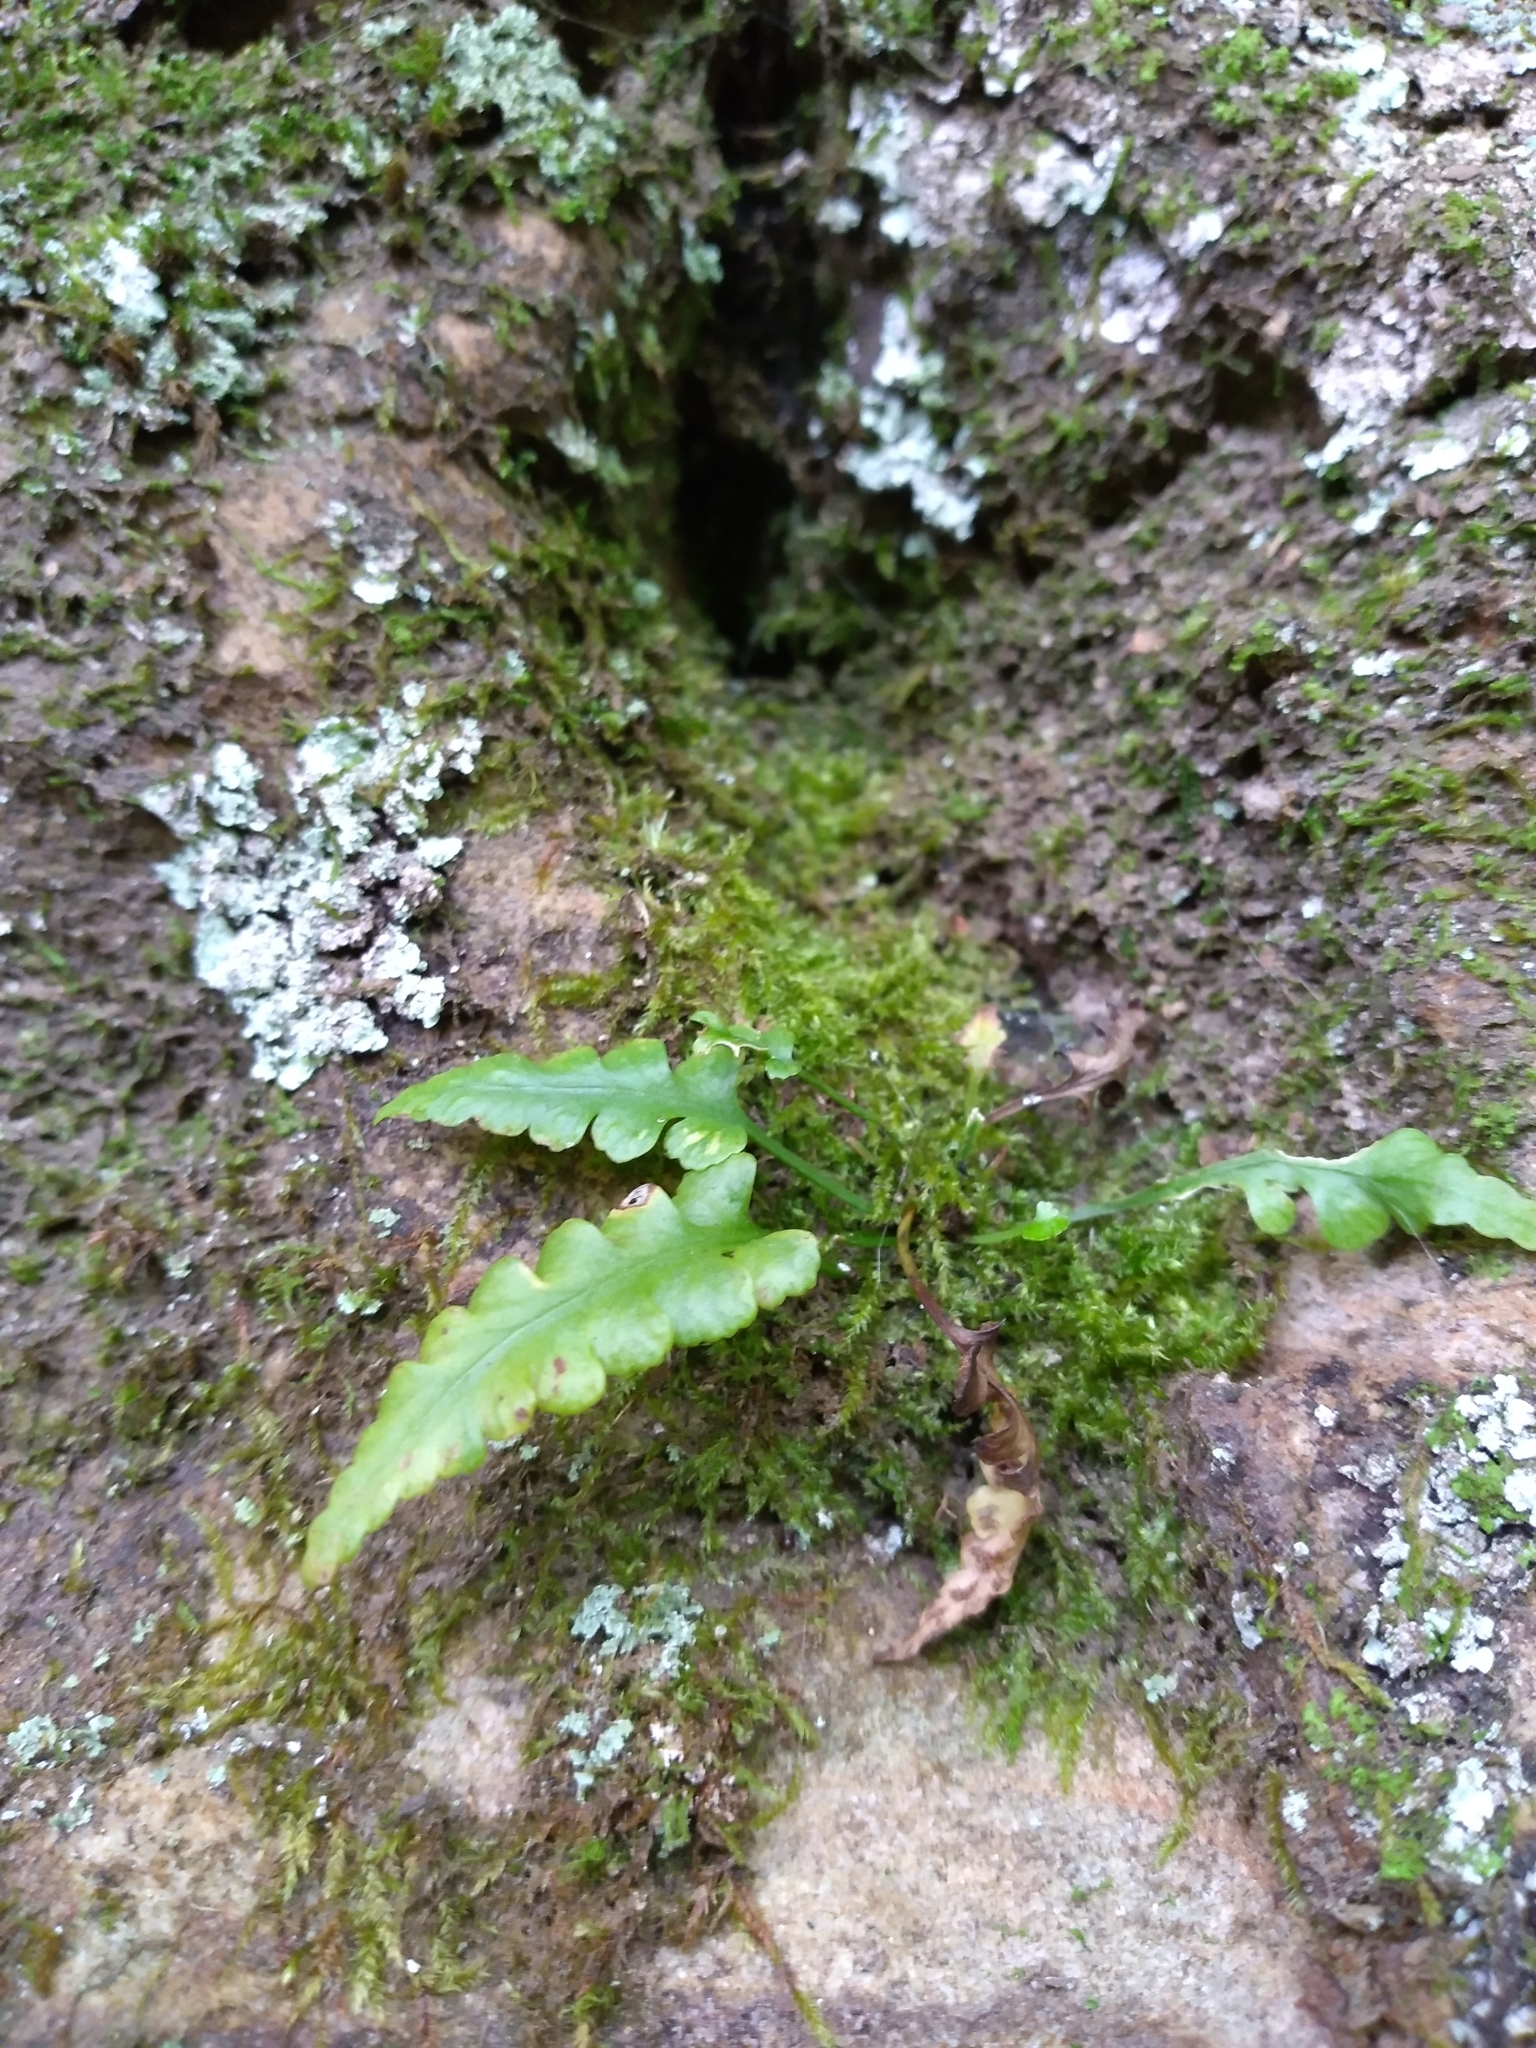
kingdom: Plantae
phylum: Tracheophyta
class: Polypodiopsida
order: Polypodiales
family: Aspleniaceae
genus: Asplenium
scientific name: Asplenium pinnatifidum
